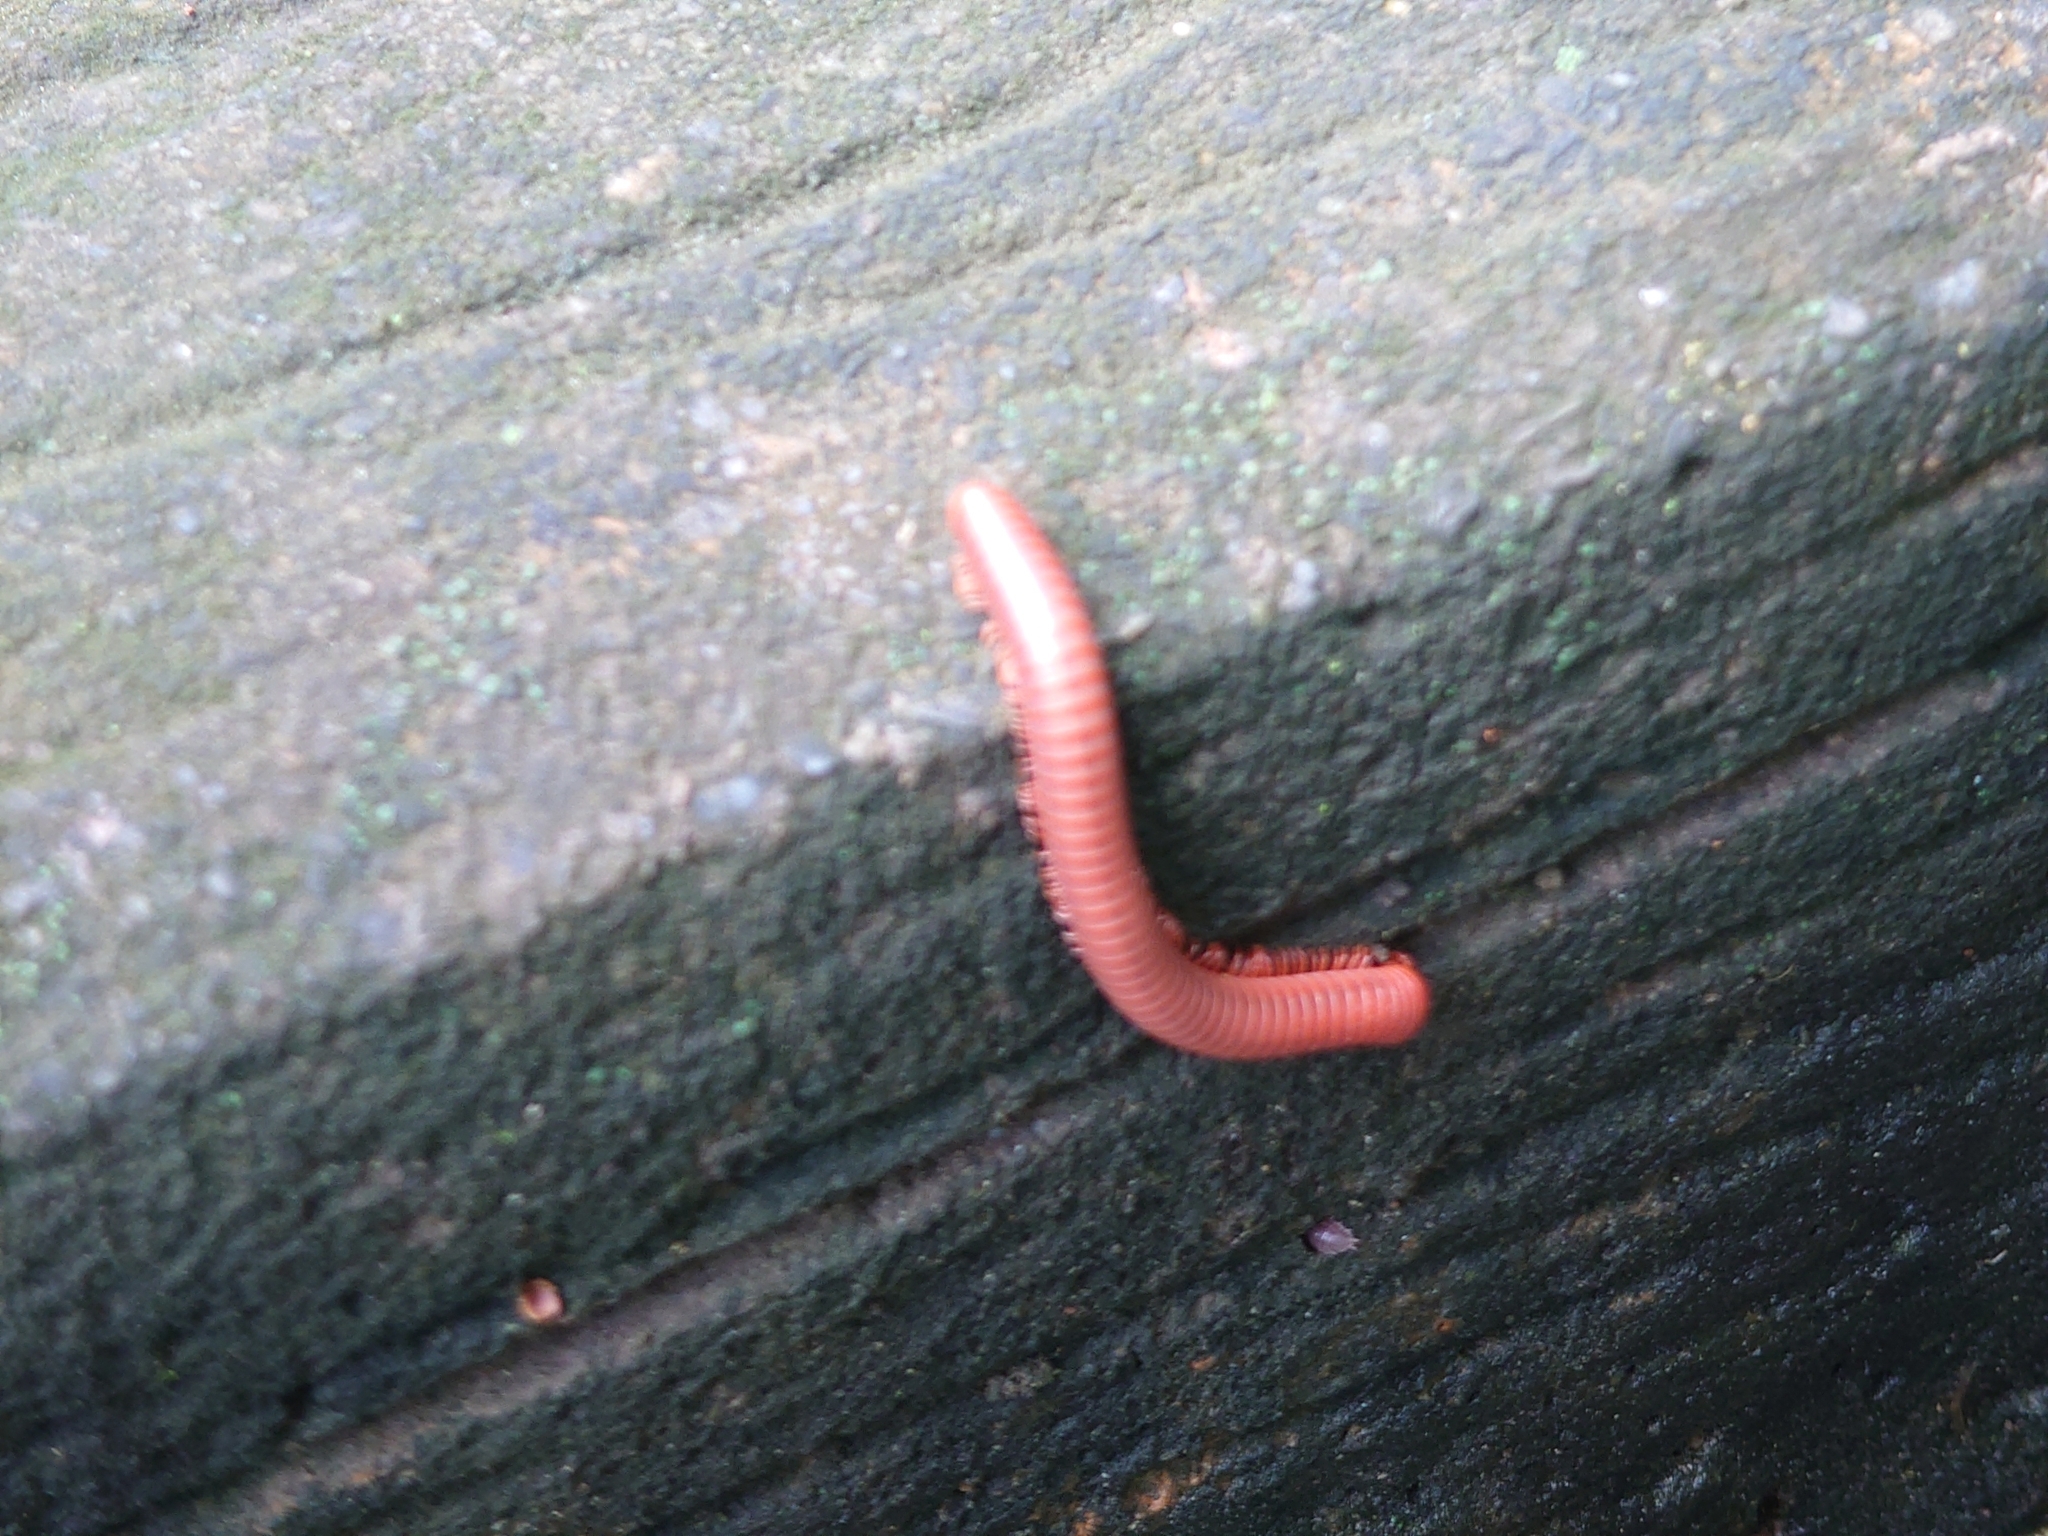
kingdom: Animalia
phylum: Arthropoda
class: Diplopoda
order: Spirobolida
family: Pachybolidae
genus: Trigoniulus
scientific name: Trigoniulus corallinus
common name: Millipede
